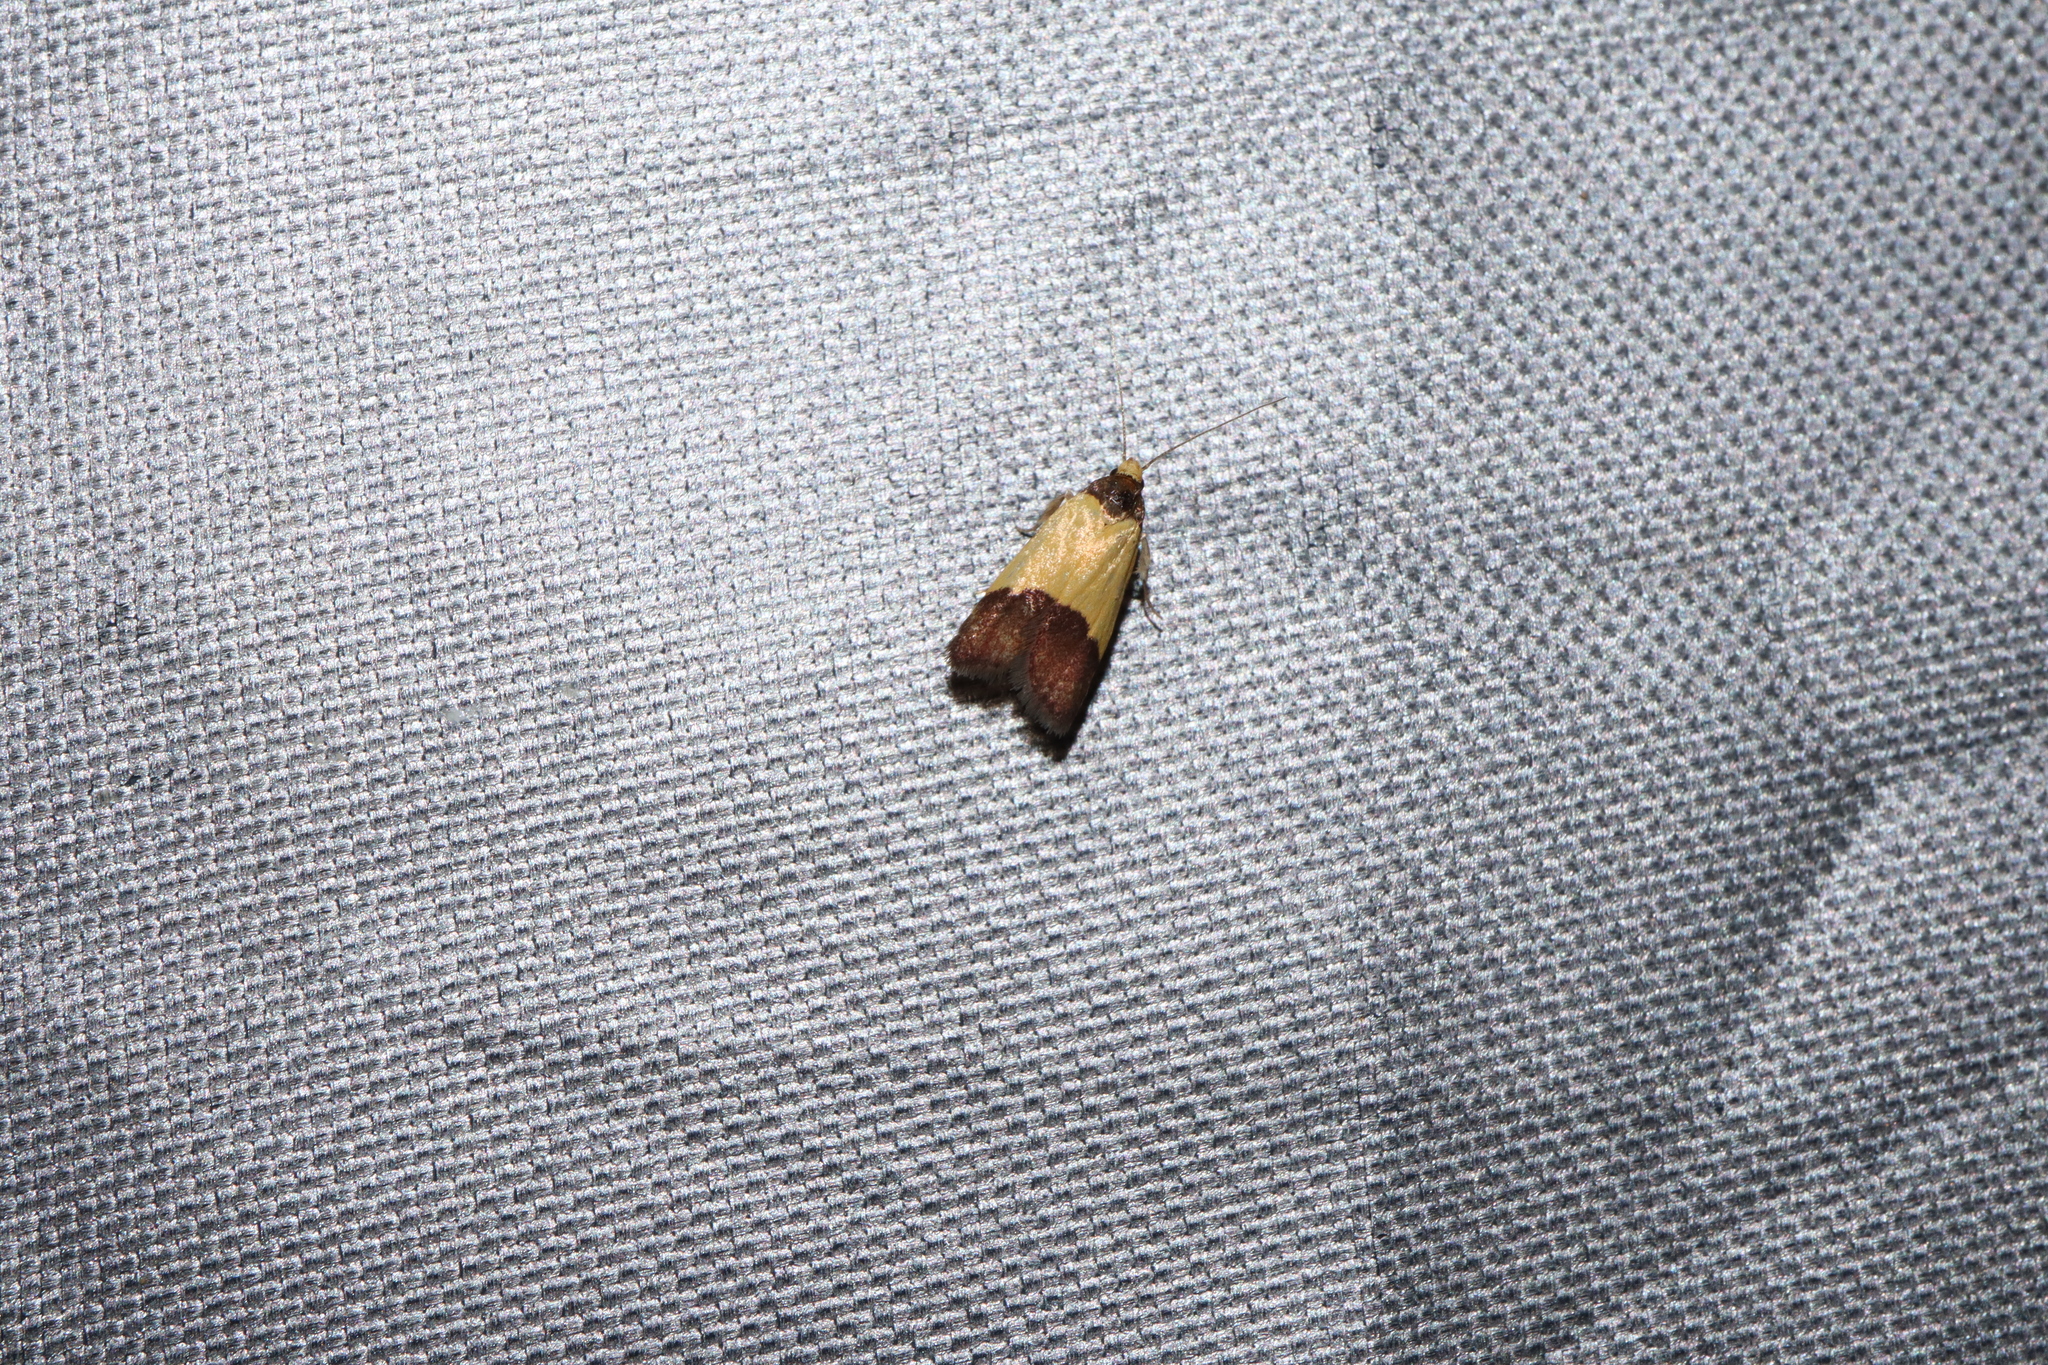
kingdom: Animalia
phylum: Arthropoda
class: Insecta
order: Lepidoptera
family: Oecophoridae
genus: Heteroteucha
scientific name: Heteroteucha dichroella
